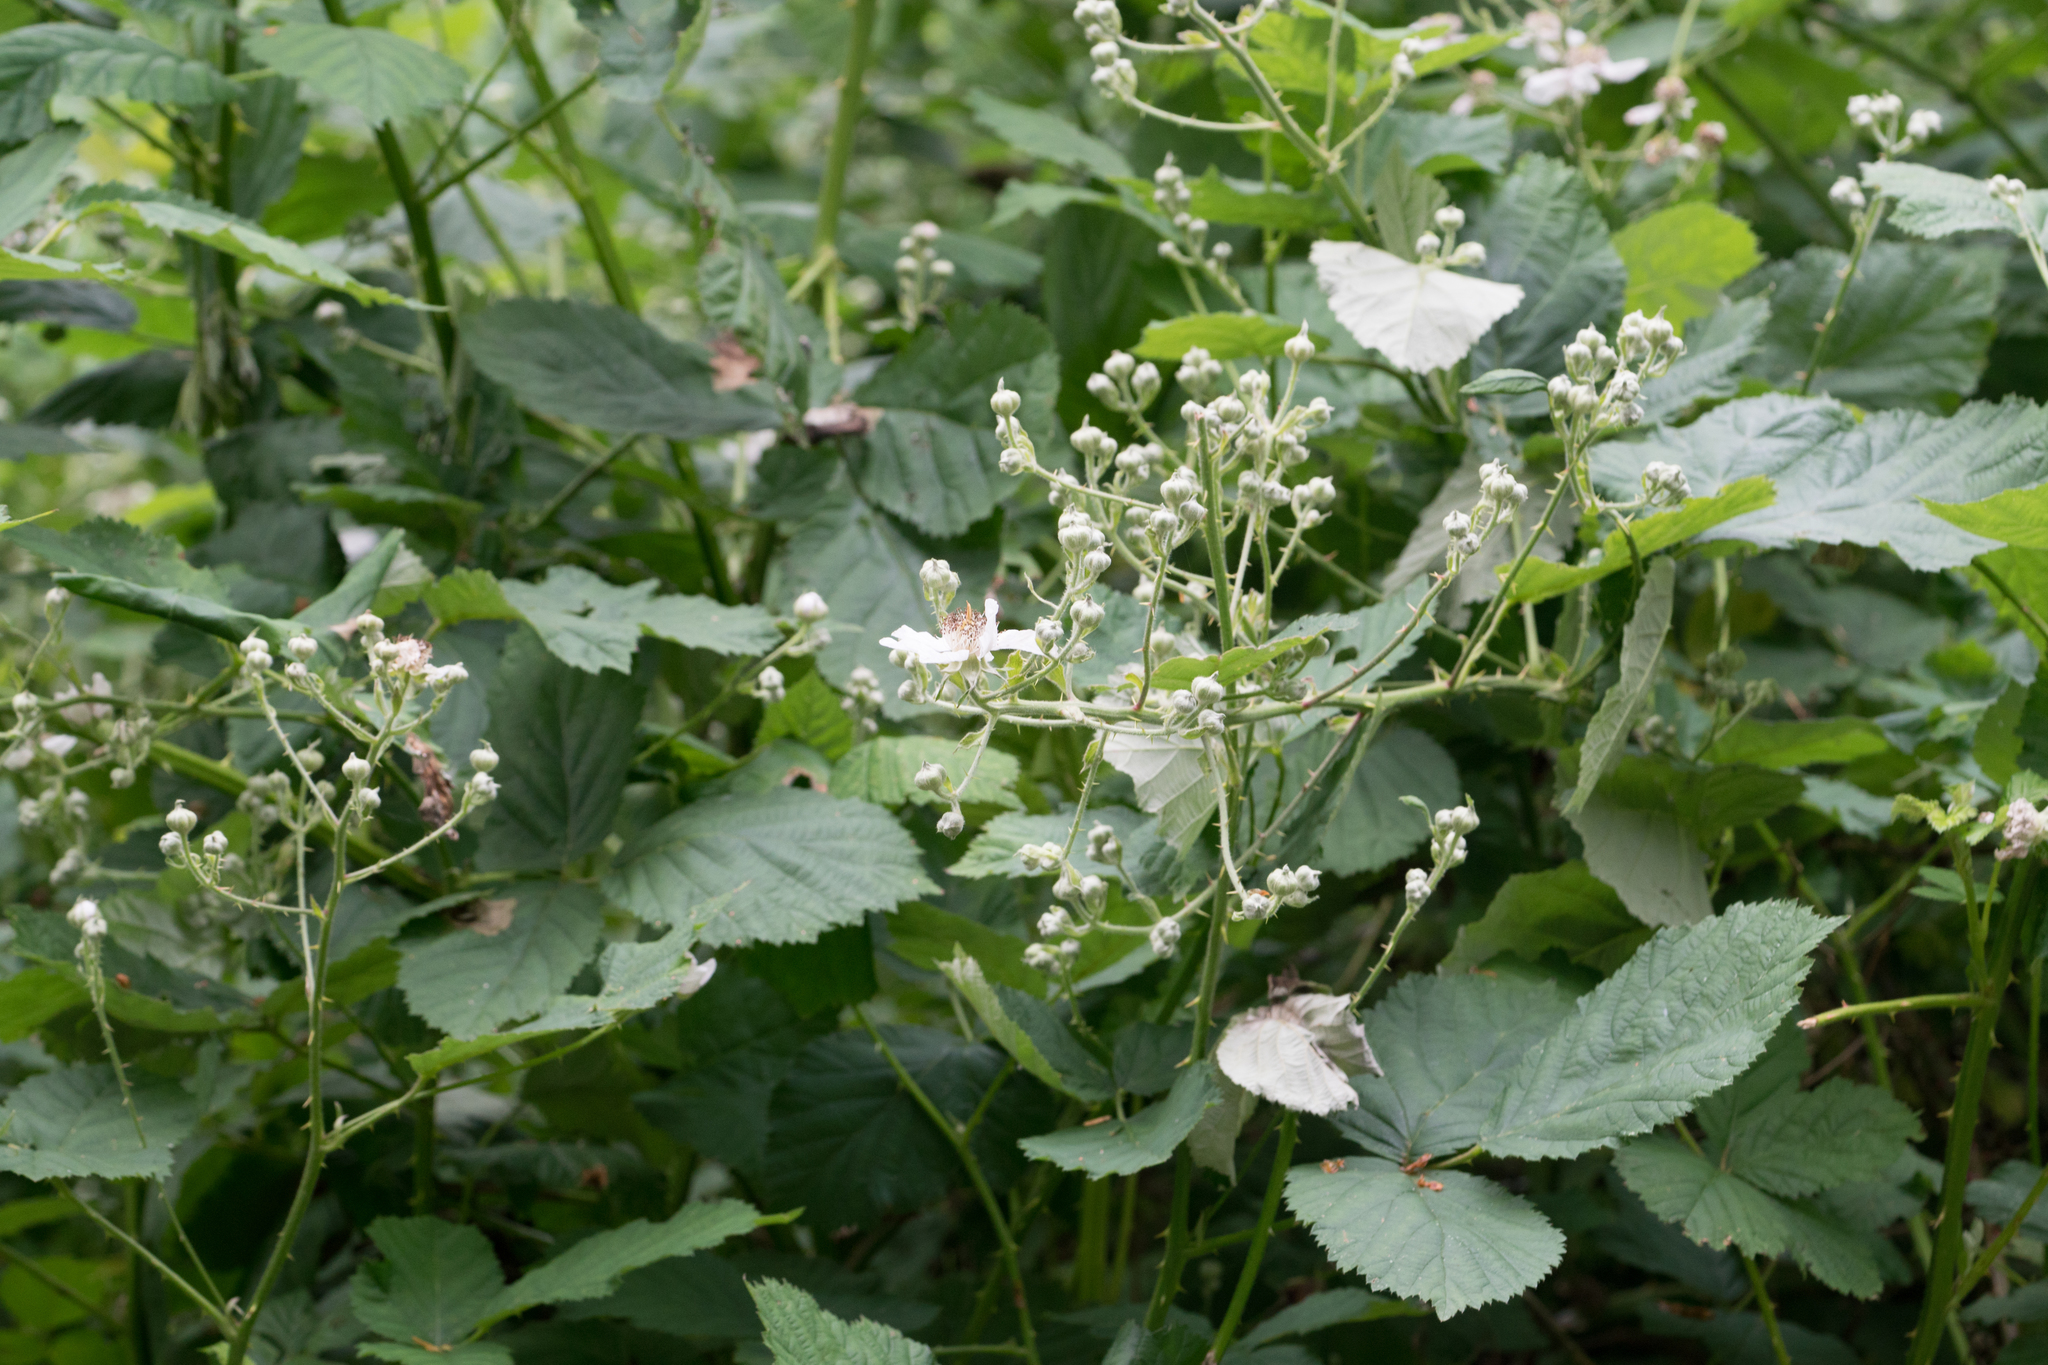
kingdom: Plantae
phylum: Tracheophyta
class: Magnoliopsida
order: Rosales
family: Rosaceae
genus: Rubus
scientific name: Rubus armeniacus
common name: Himalayan blackberry
